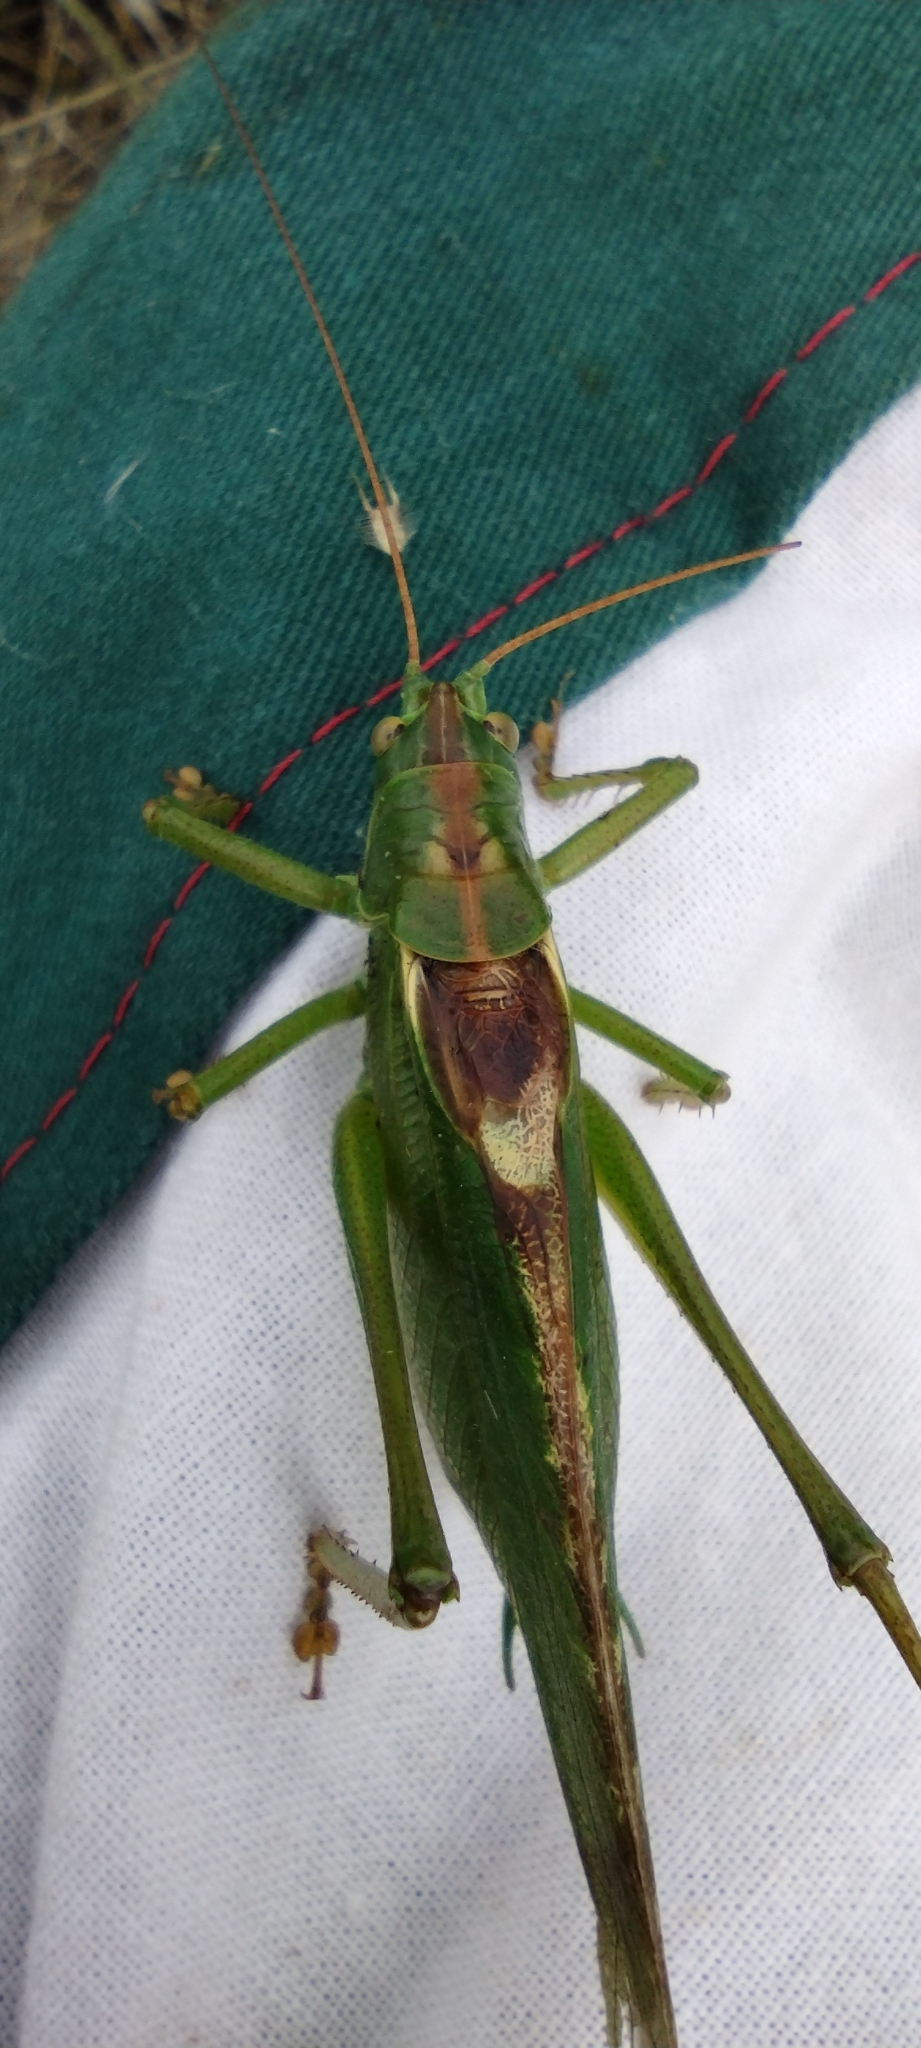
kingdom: Animalia
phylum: Arthropoda
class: Insecta
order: Orthoptera
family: Tettigoniidae
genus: Tettigonia
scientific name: Tettigonia viridissima
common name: Great green bush-cricket
